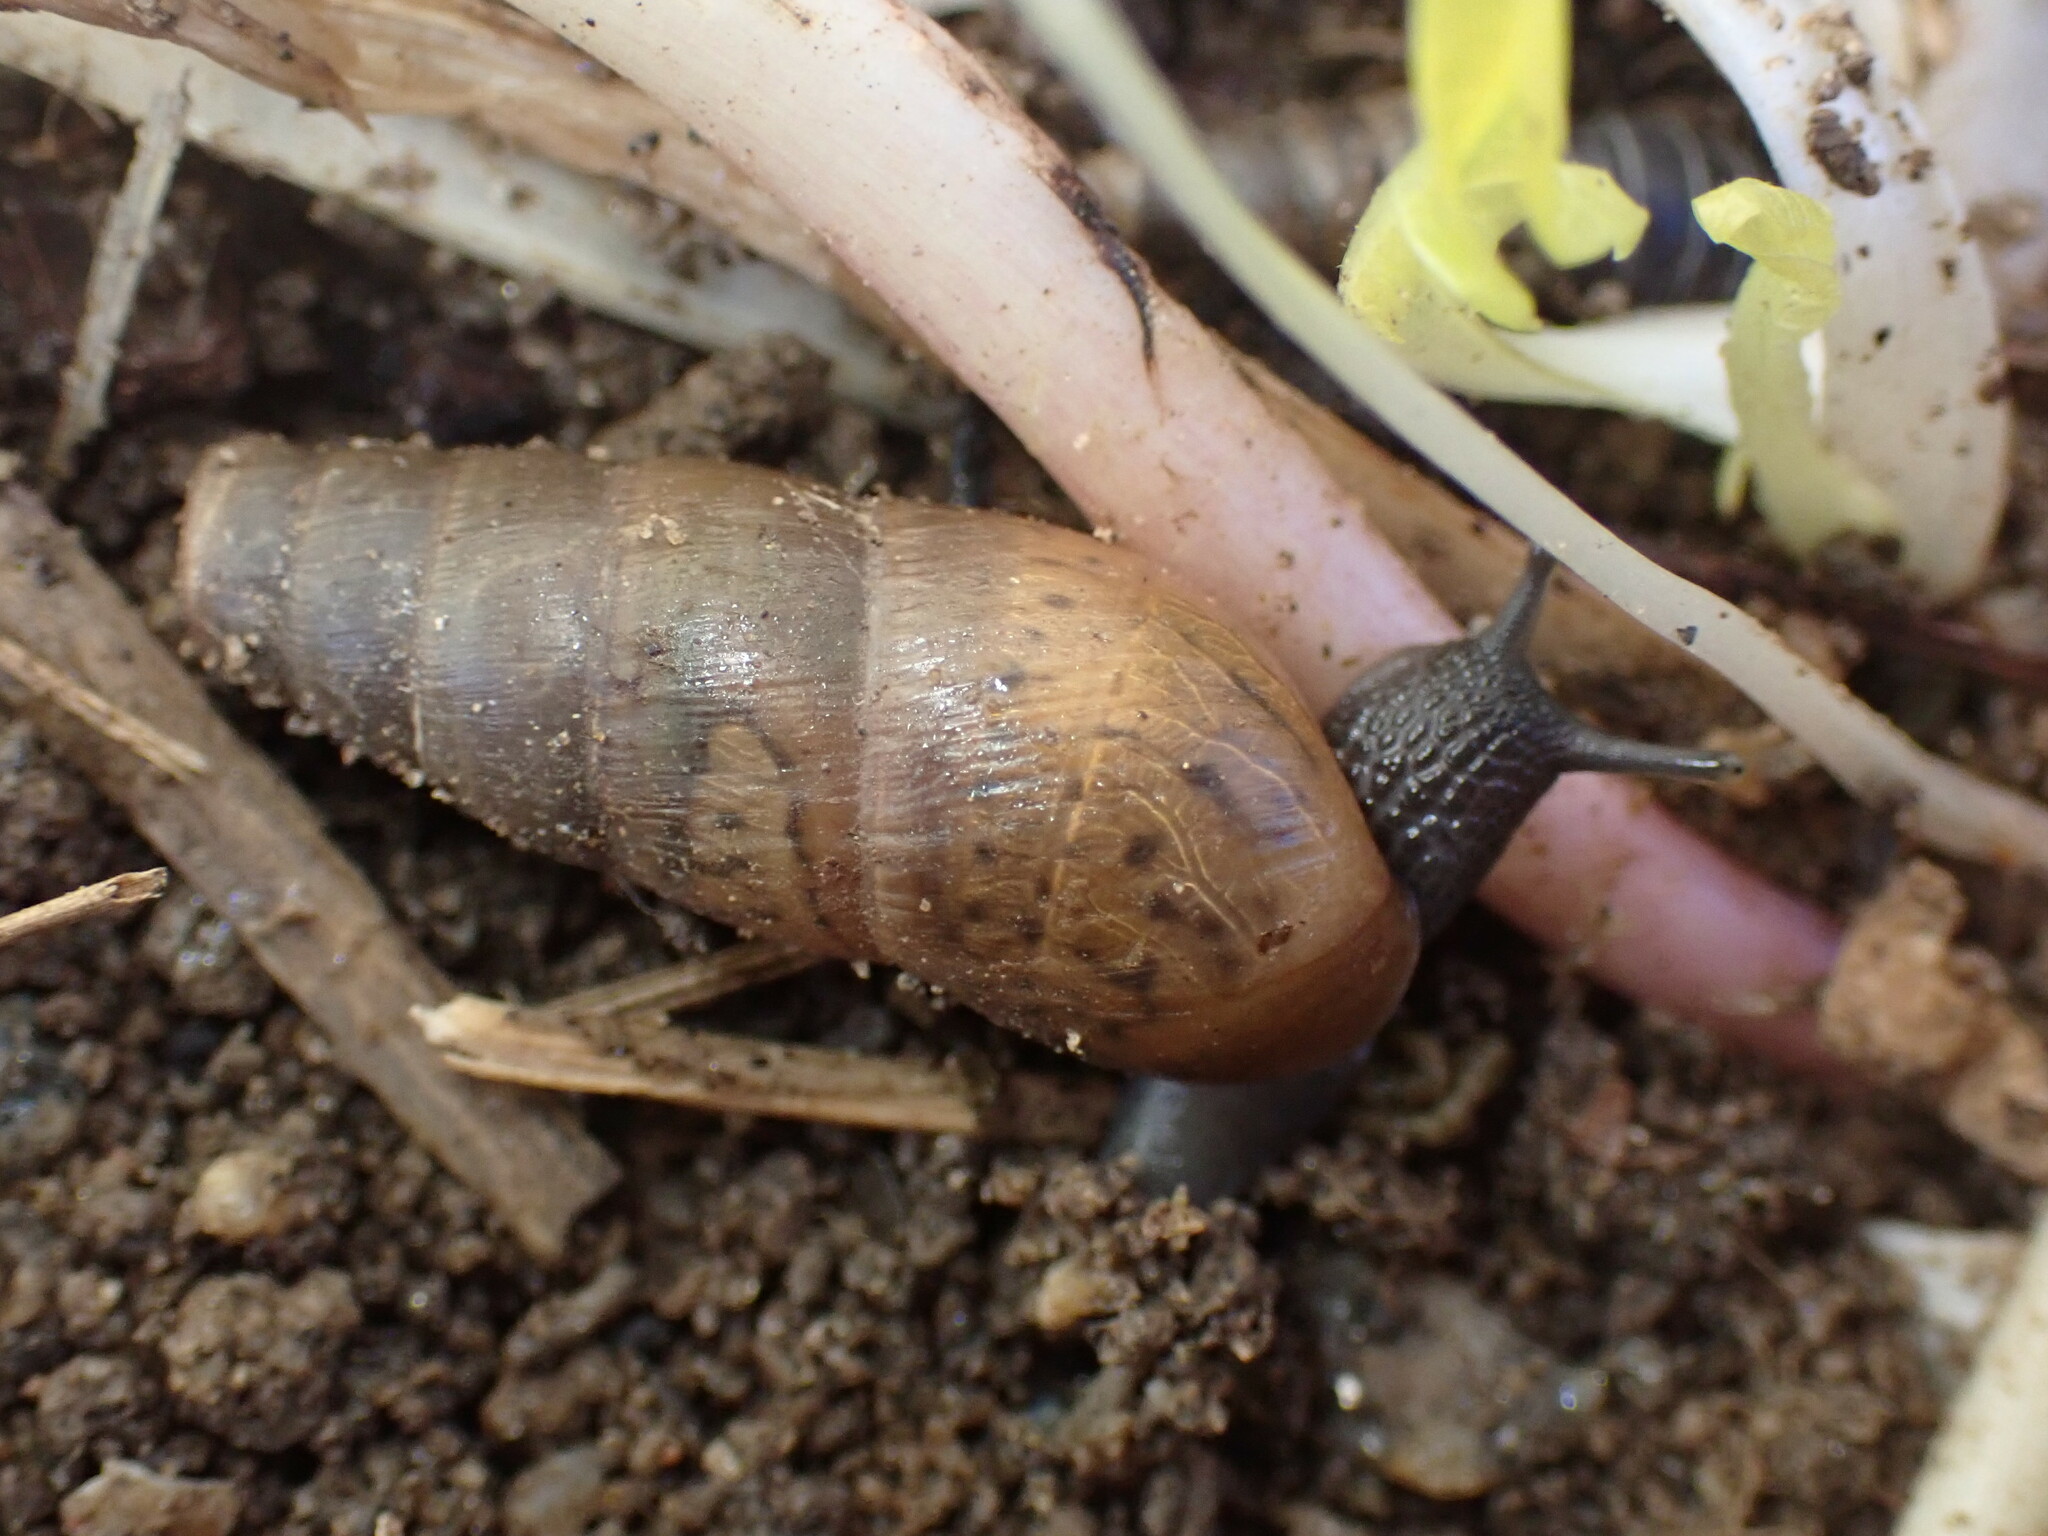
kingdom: Animalia
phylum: Mollusca
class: Gastropoda
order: Stylommatophora
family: Achatinidae
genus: Rumina
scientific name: Rumina decollata
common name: Decollate snail
